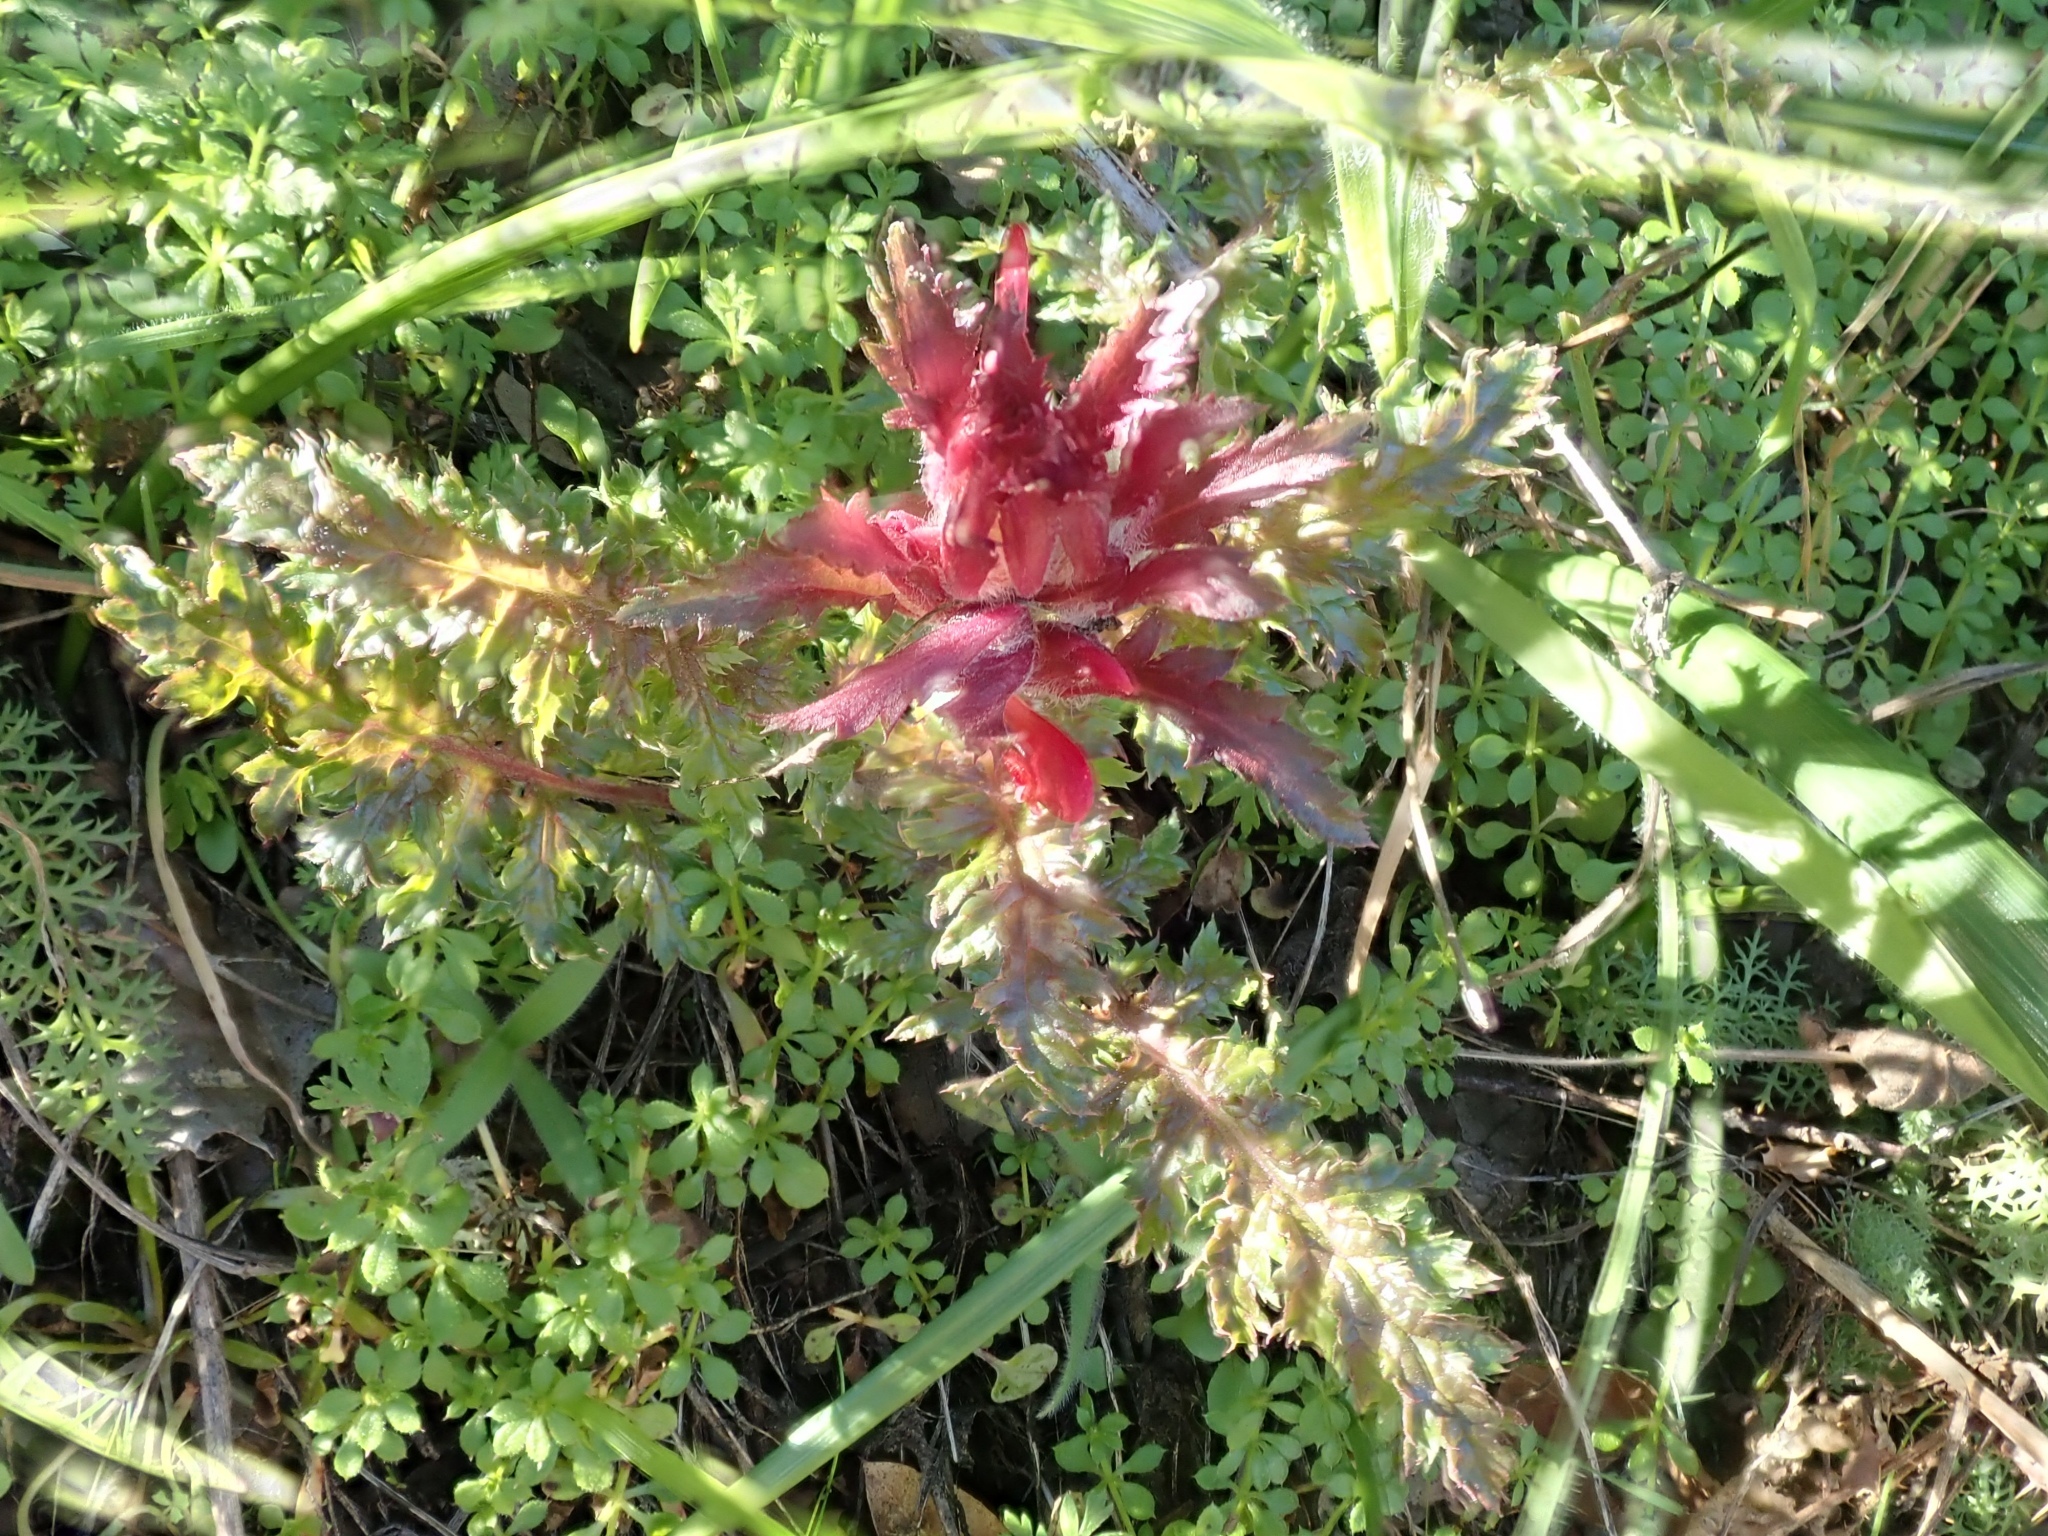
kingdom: Plantae
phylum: Tracheophyta
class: Magnoliopsida
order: Lamiales
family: Orobanchaceae
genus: Pedicularis
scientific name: Pedicularis densiflora
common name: Indian warrior
